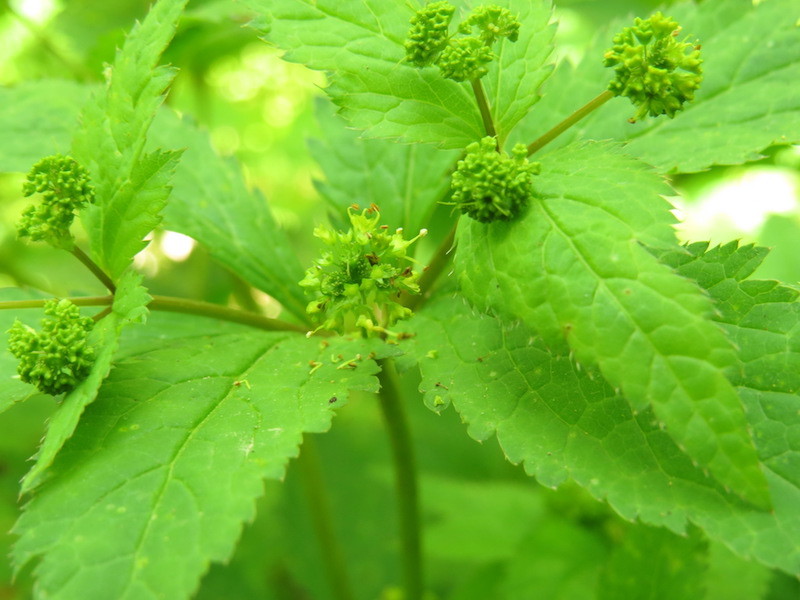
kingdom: Plantae
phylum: Tracheophyta
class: Magnoliopsida
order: Apiales
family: Apiaceae
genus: Sanicula
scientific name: Sanicula odorata
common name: Cluster sanicle
